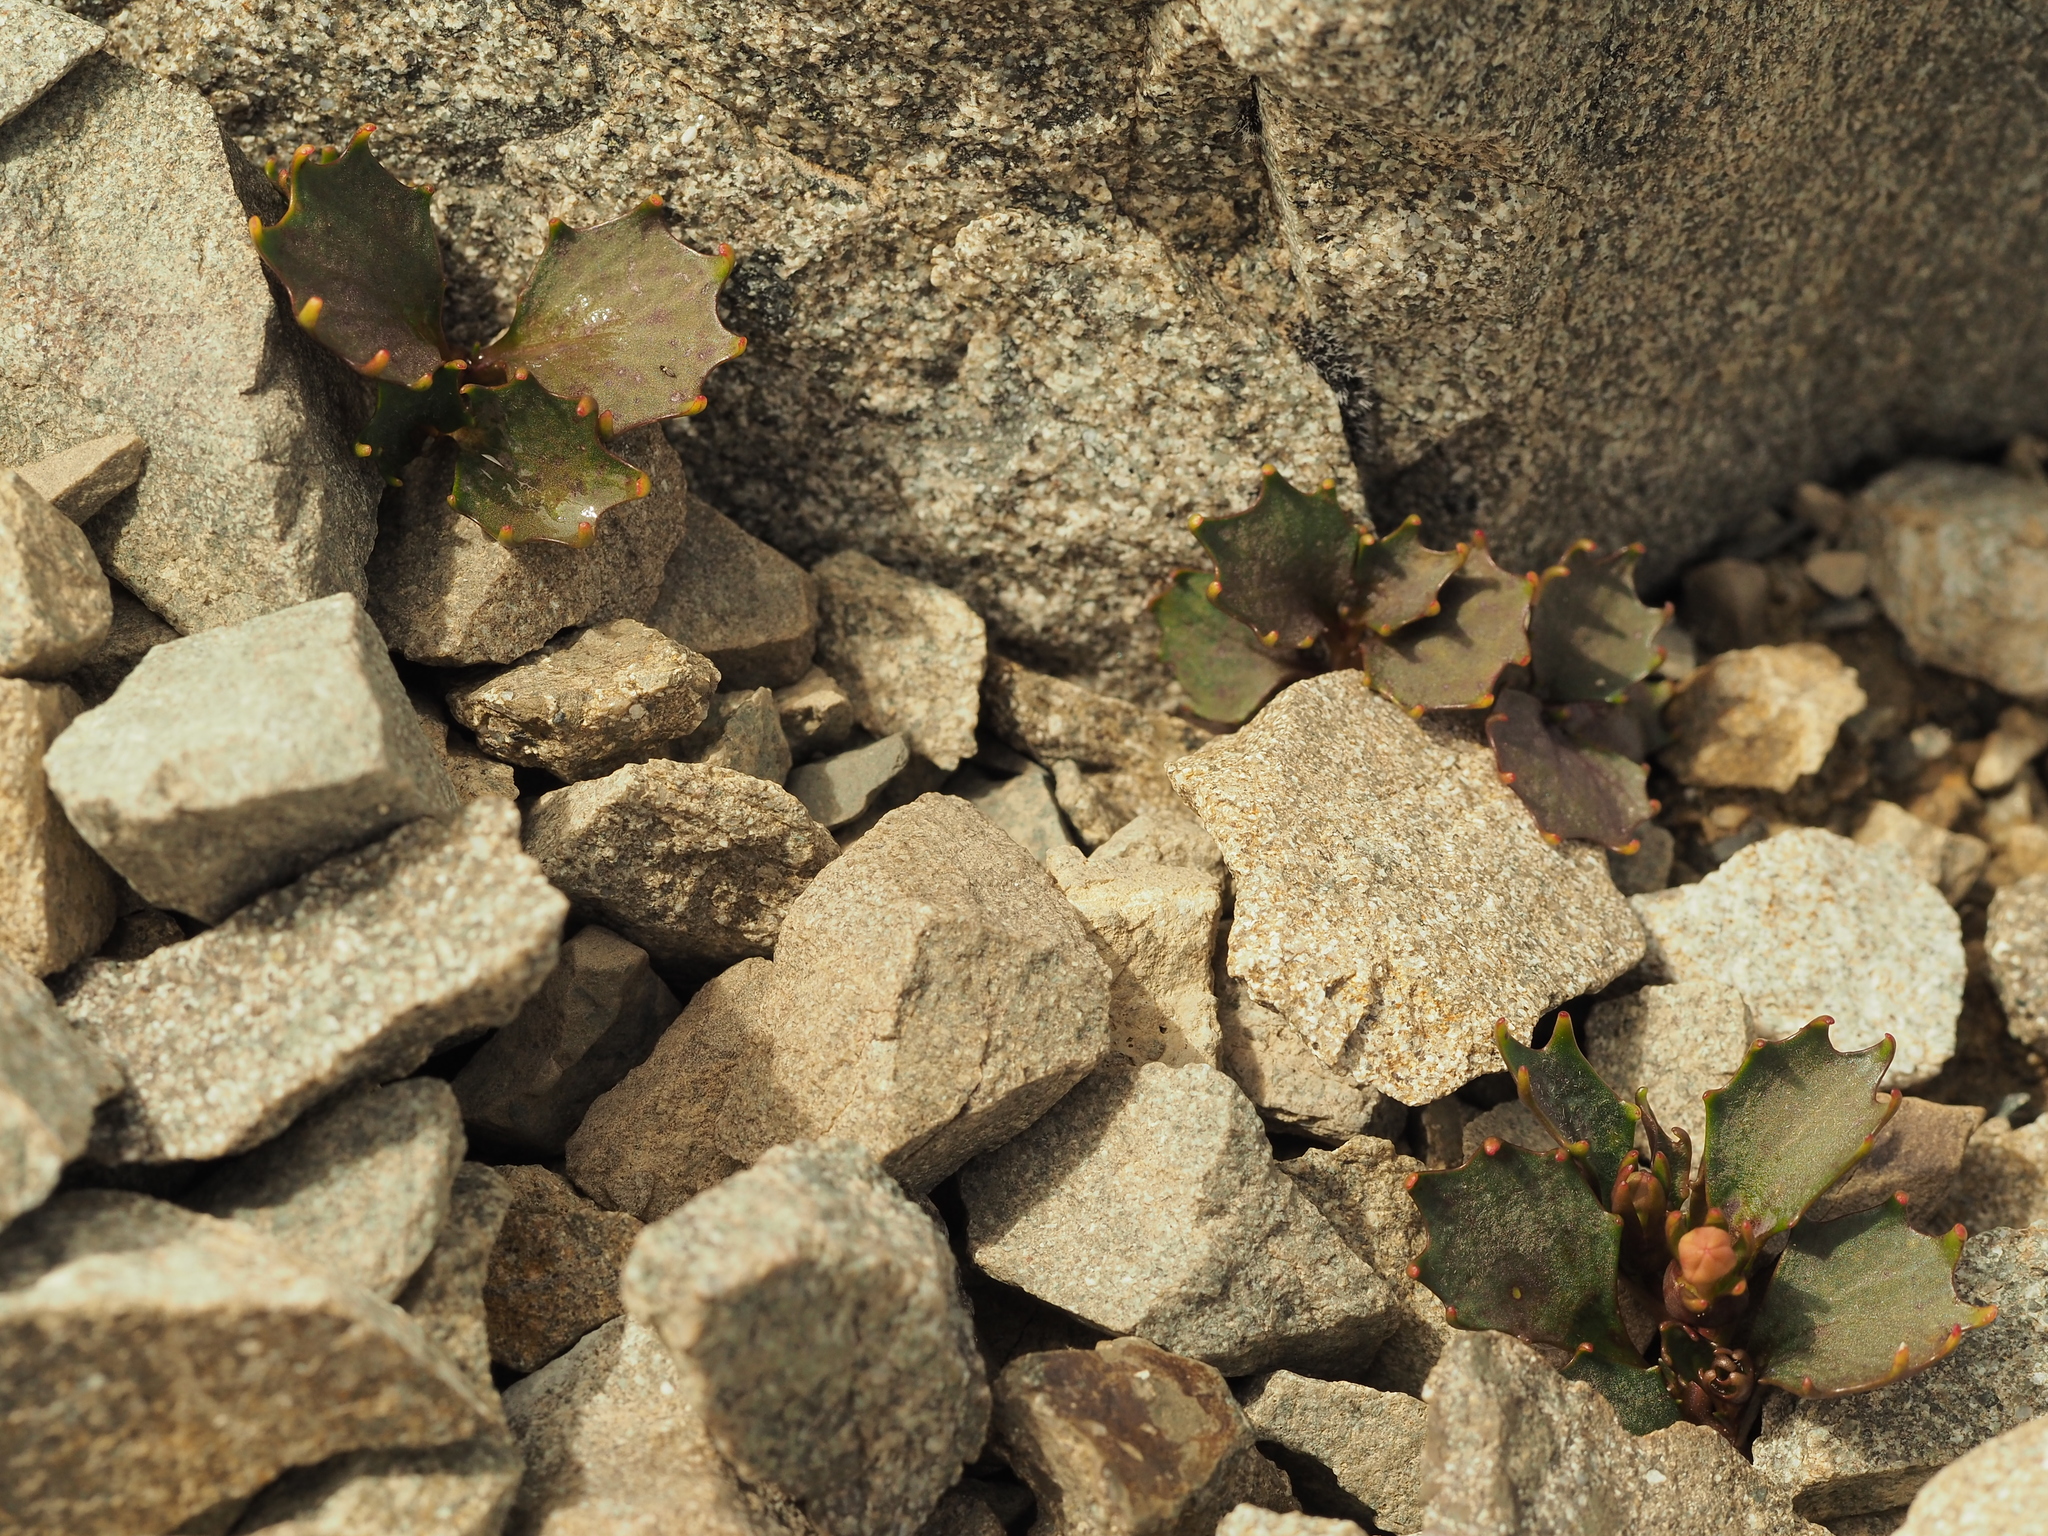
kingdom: Plantae
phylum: Tracheophyta
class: Magnoliopsida
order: Asterales
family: Campanulaceae
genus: Lobelia
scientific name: Lobelia roughii
